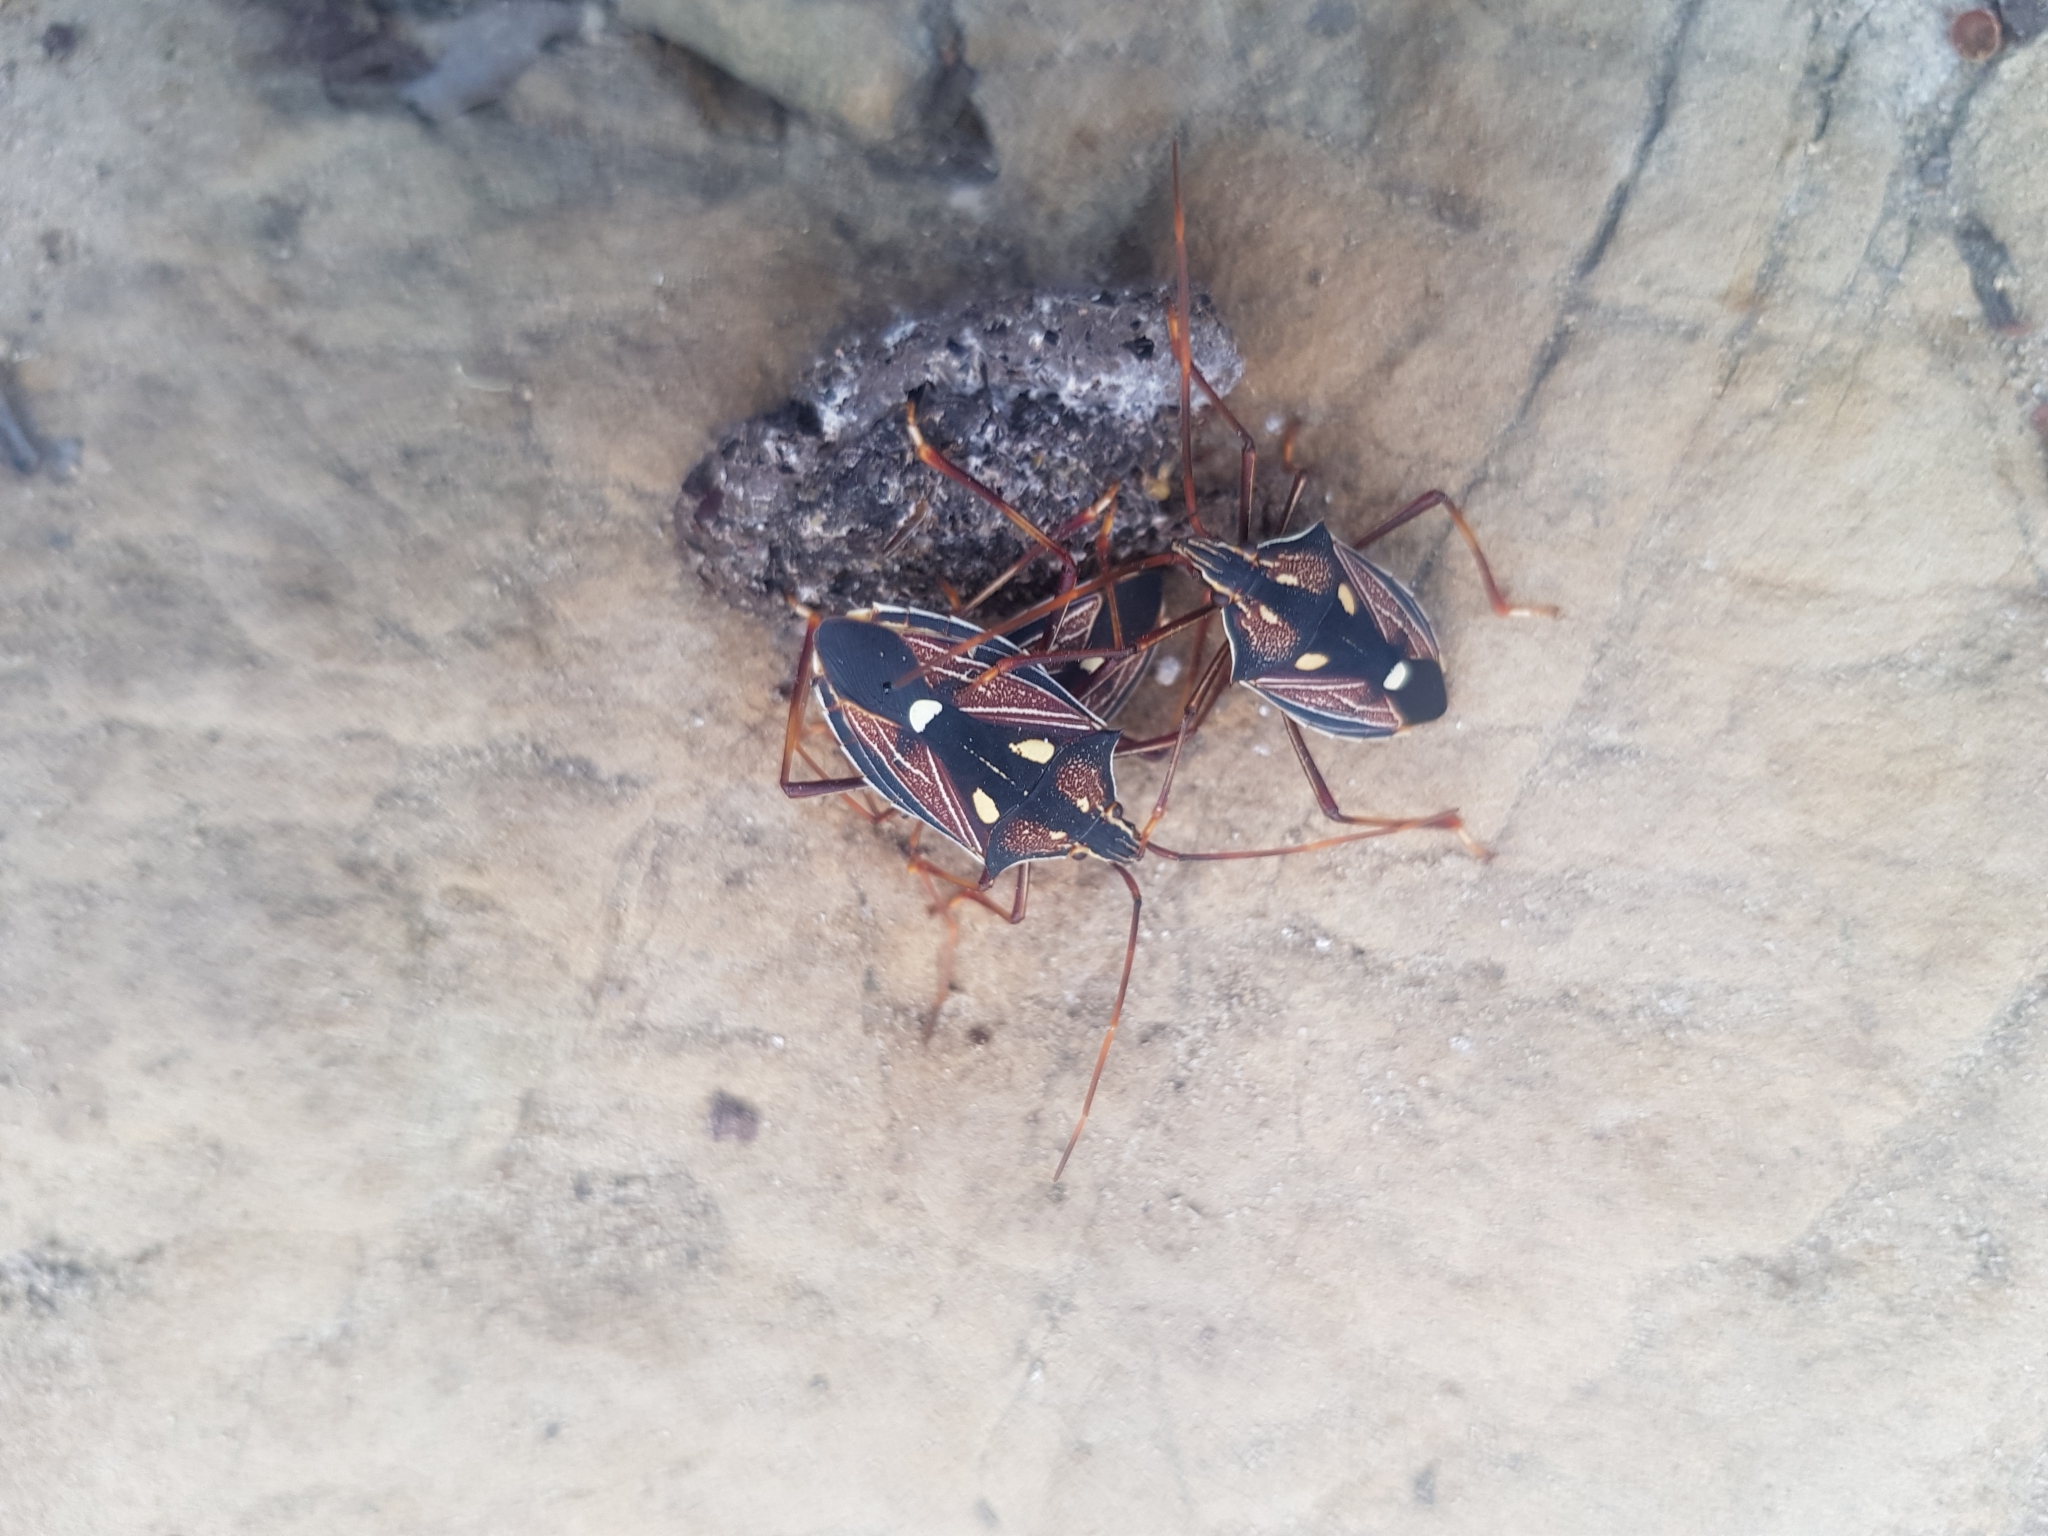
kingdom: Animalia
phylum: Arthropoda
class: Insecta
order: Hemiptera
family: Pentatomidae
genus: Poecilometis
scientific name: Poecilometis armatus
